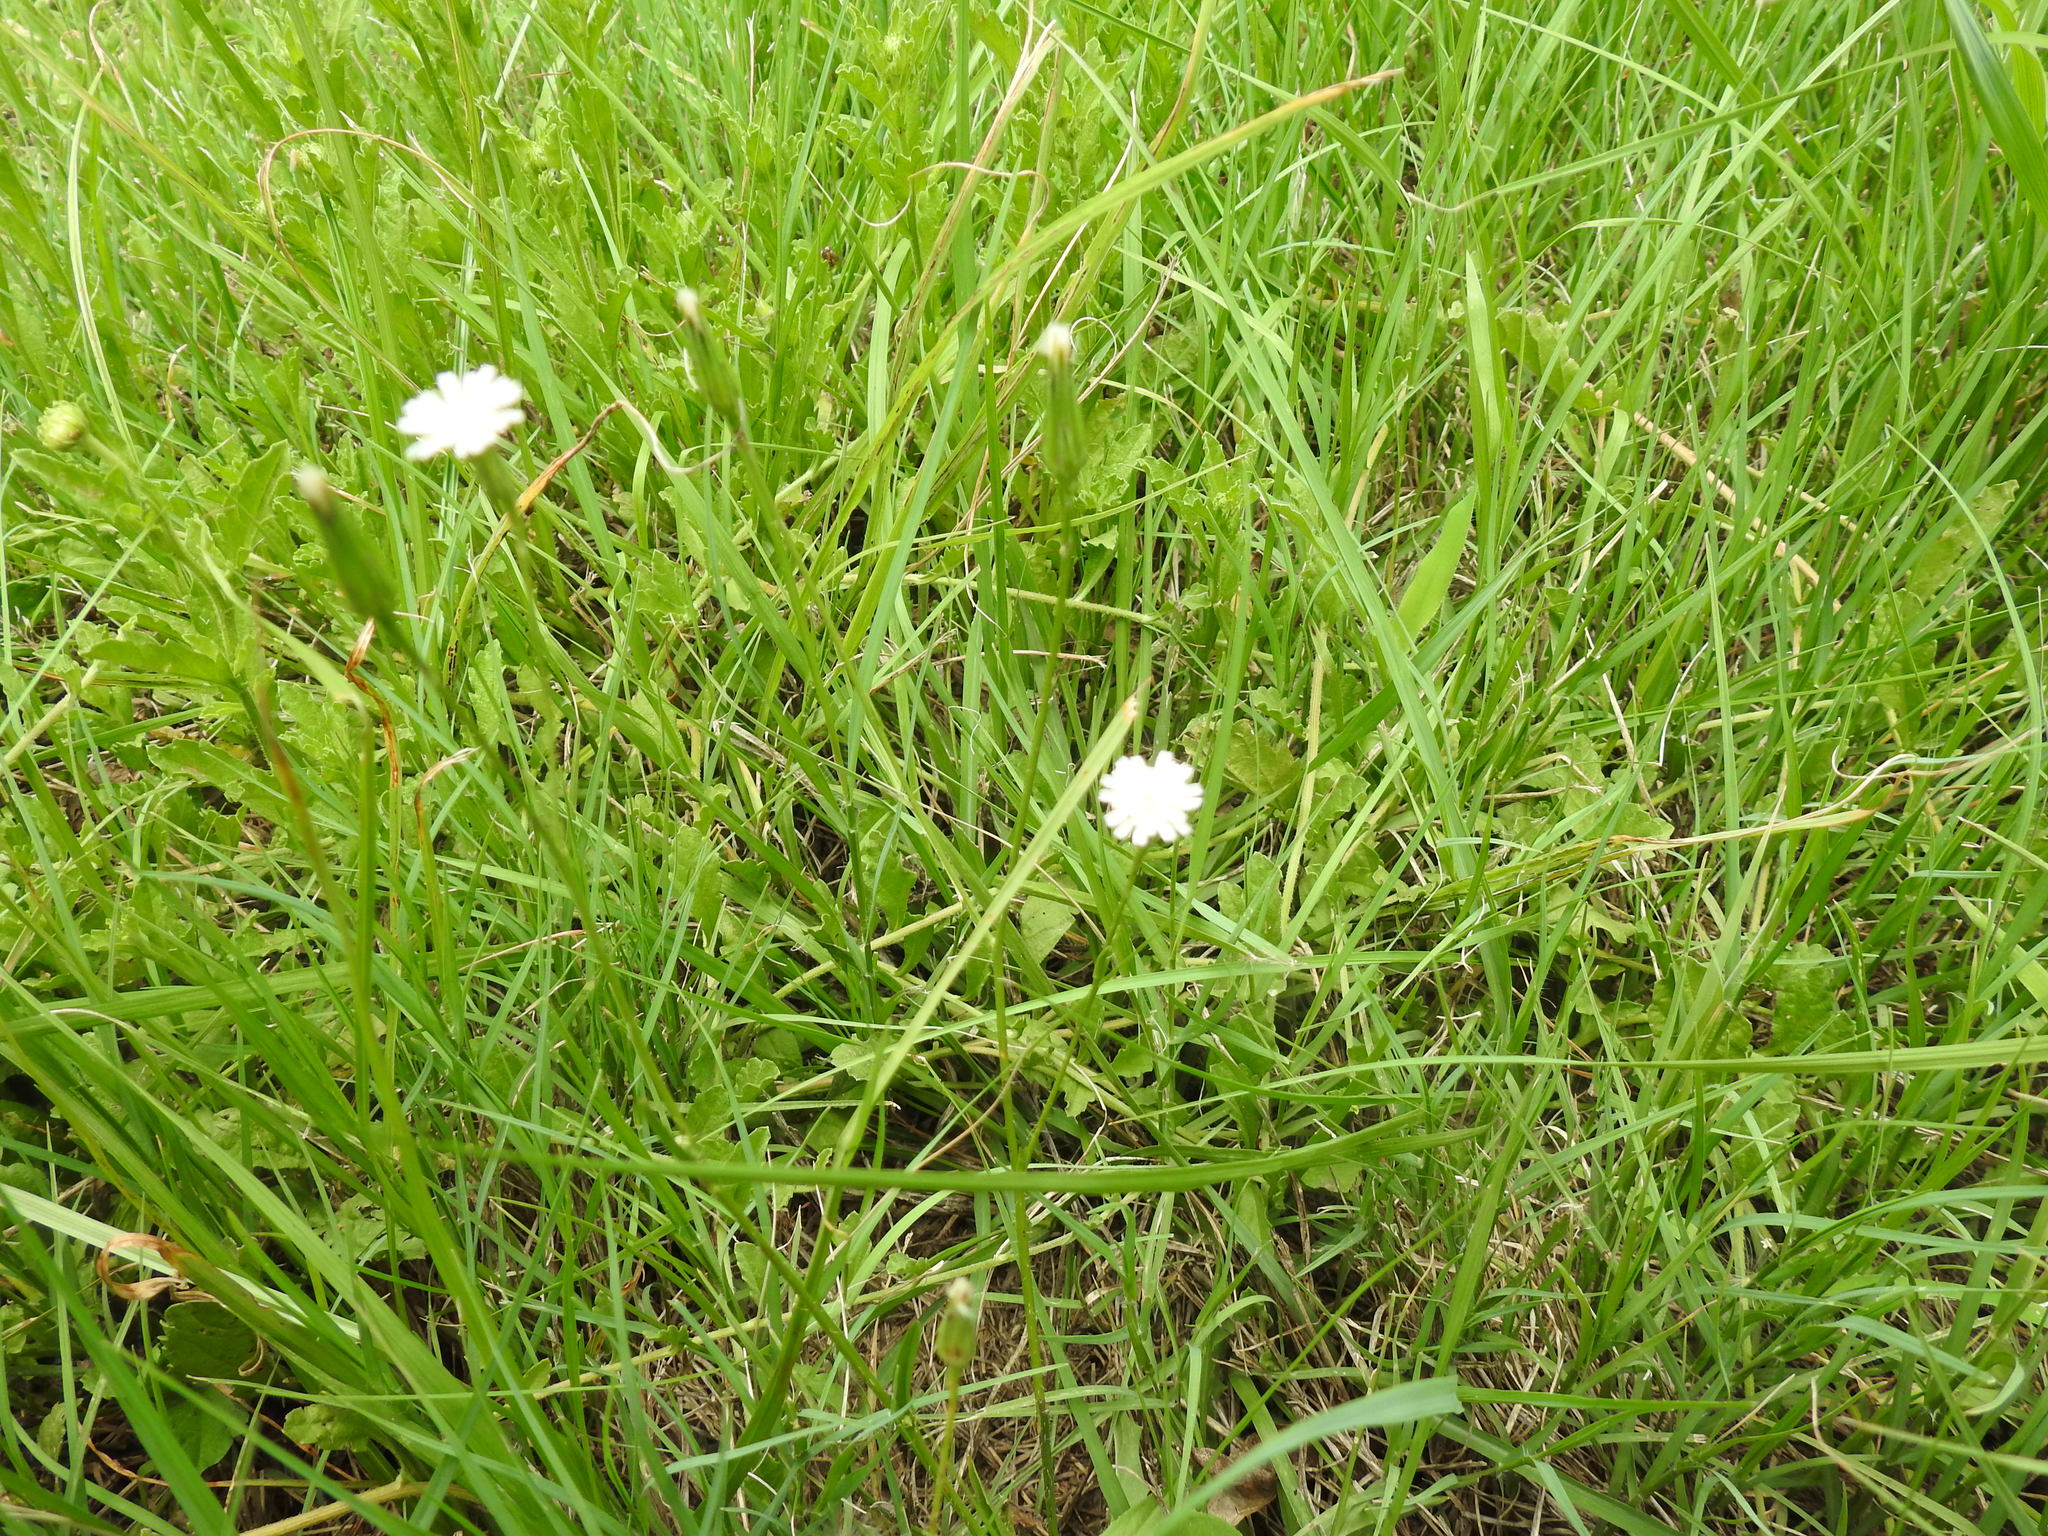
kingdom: Plantae
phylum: Tracheophyta
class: Magnoliopsida
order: Asterales
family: Asteraceae
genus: Hypochaeris
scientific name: Hypochaeris albiflora
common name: White flatweed
